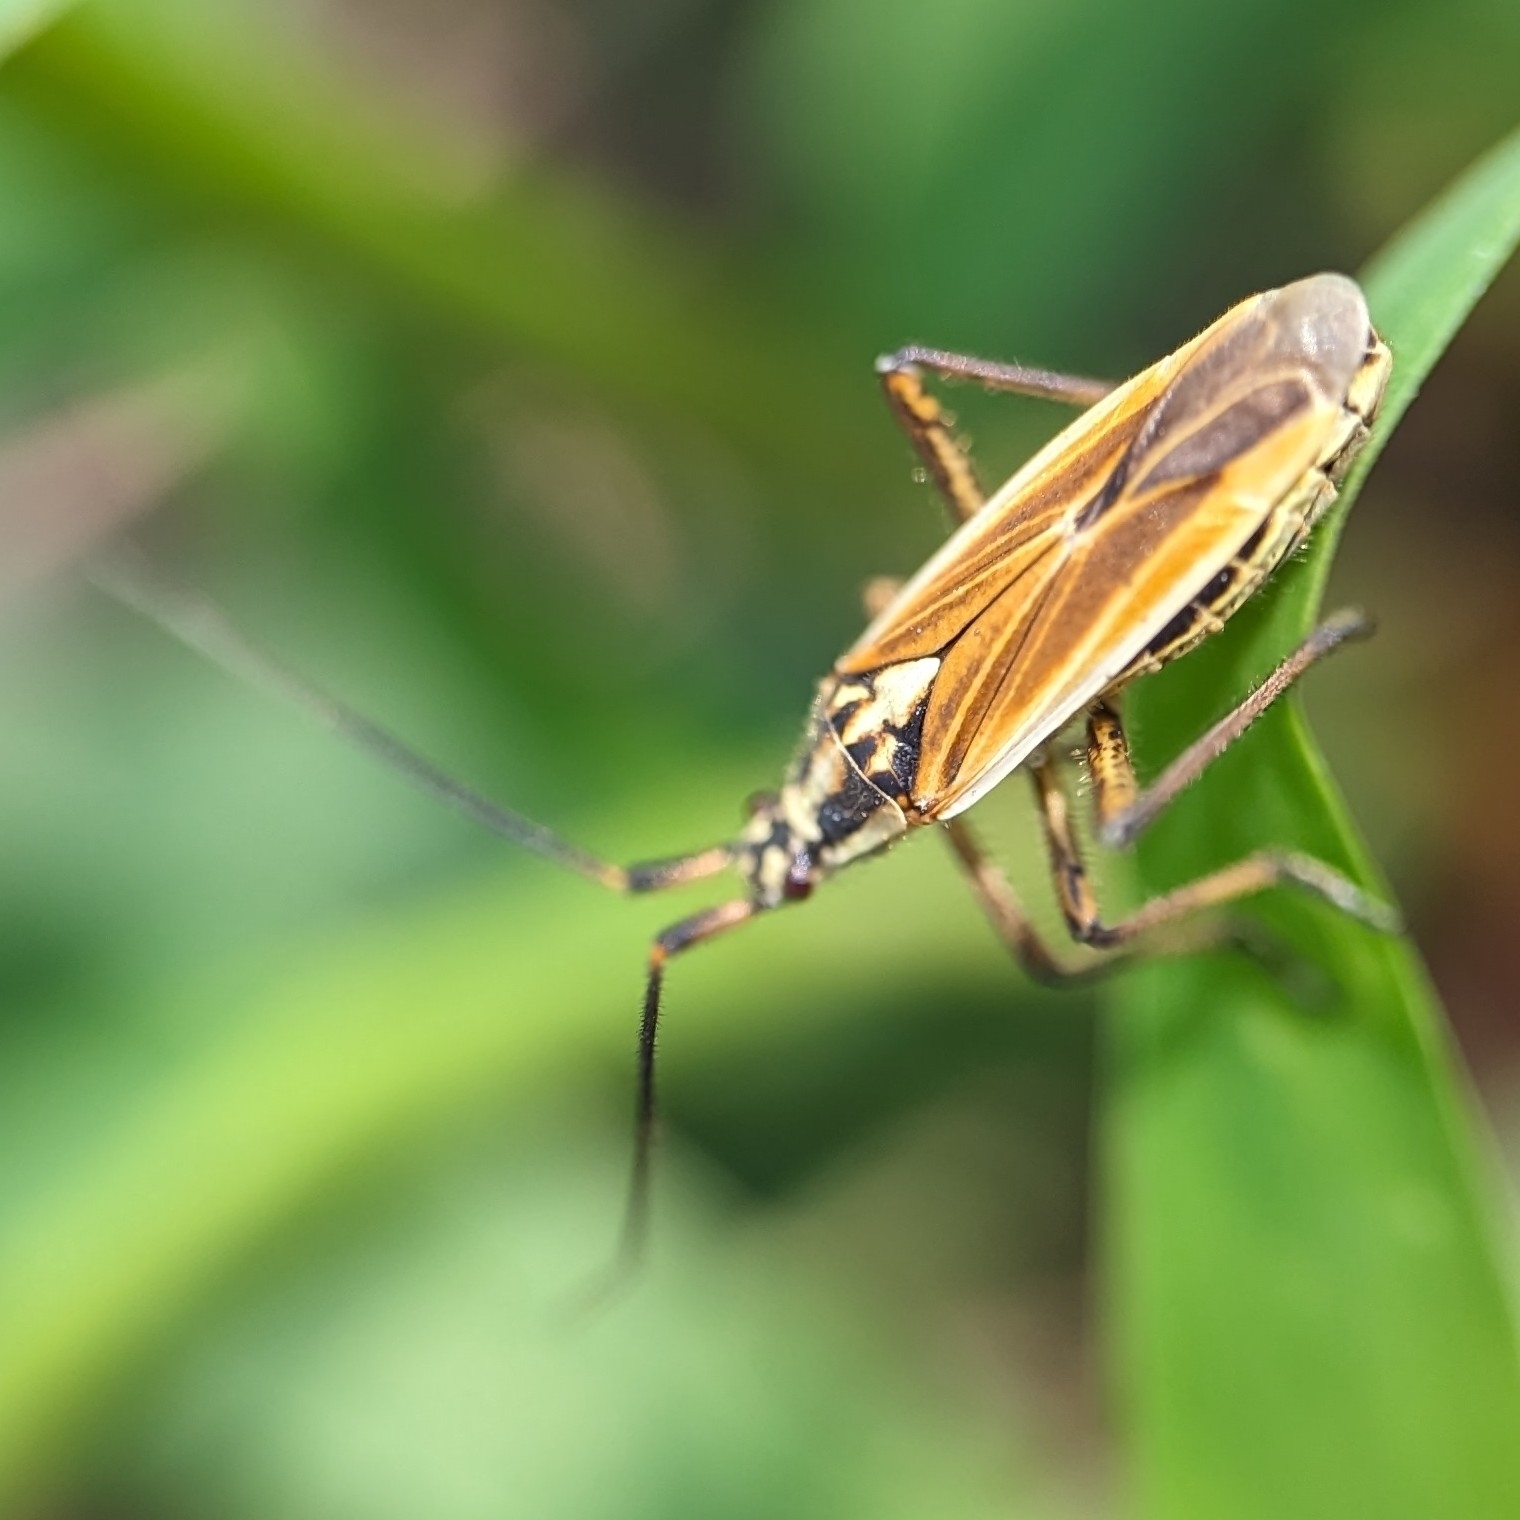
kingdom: Animalia
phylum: Arthropoda
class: Insecta
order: Hemiptera
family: Miridae
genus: Leptopterna
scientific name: Leptopterna dolabrata
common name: Meadow plant bug
